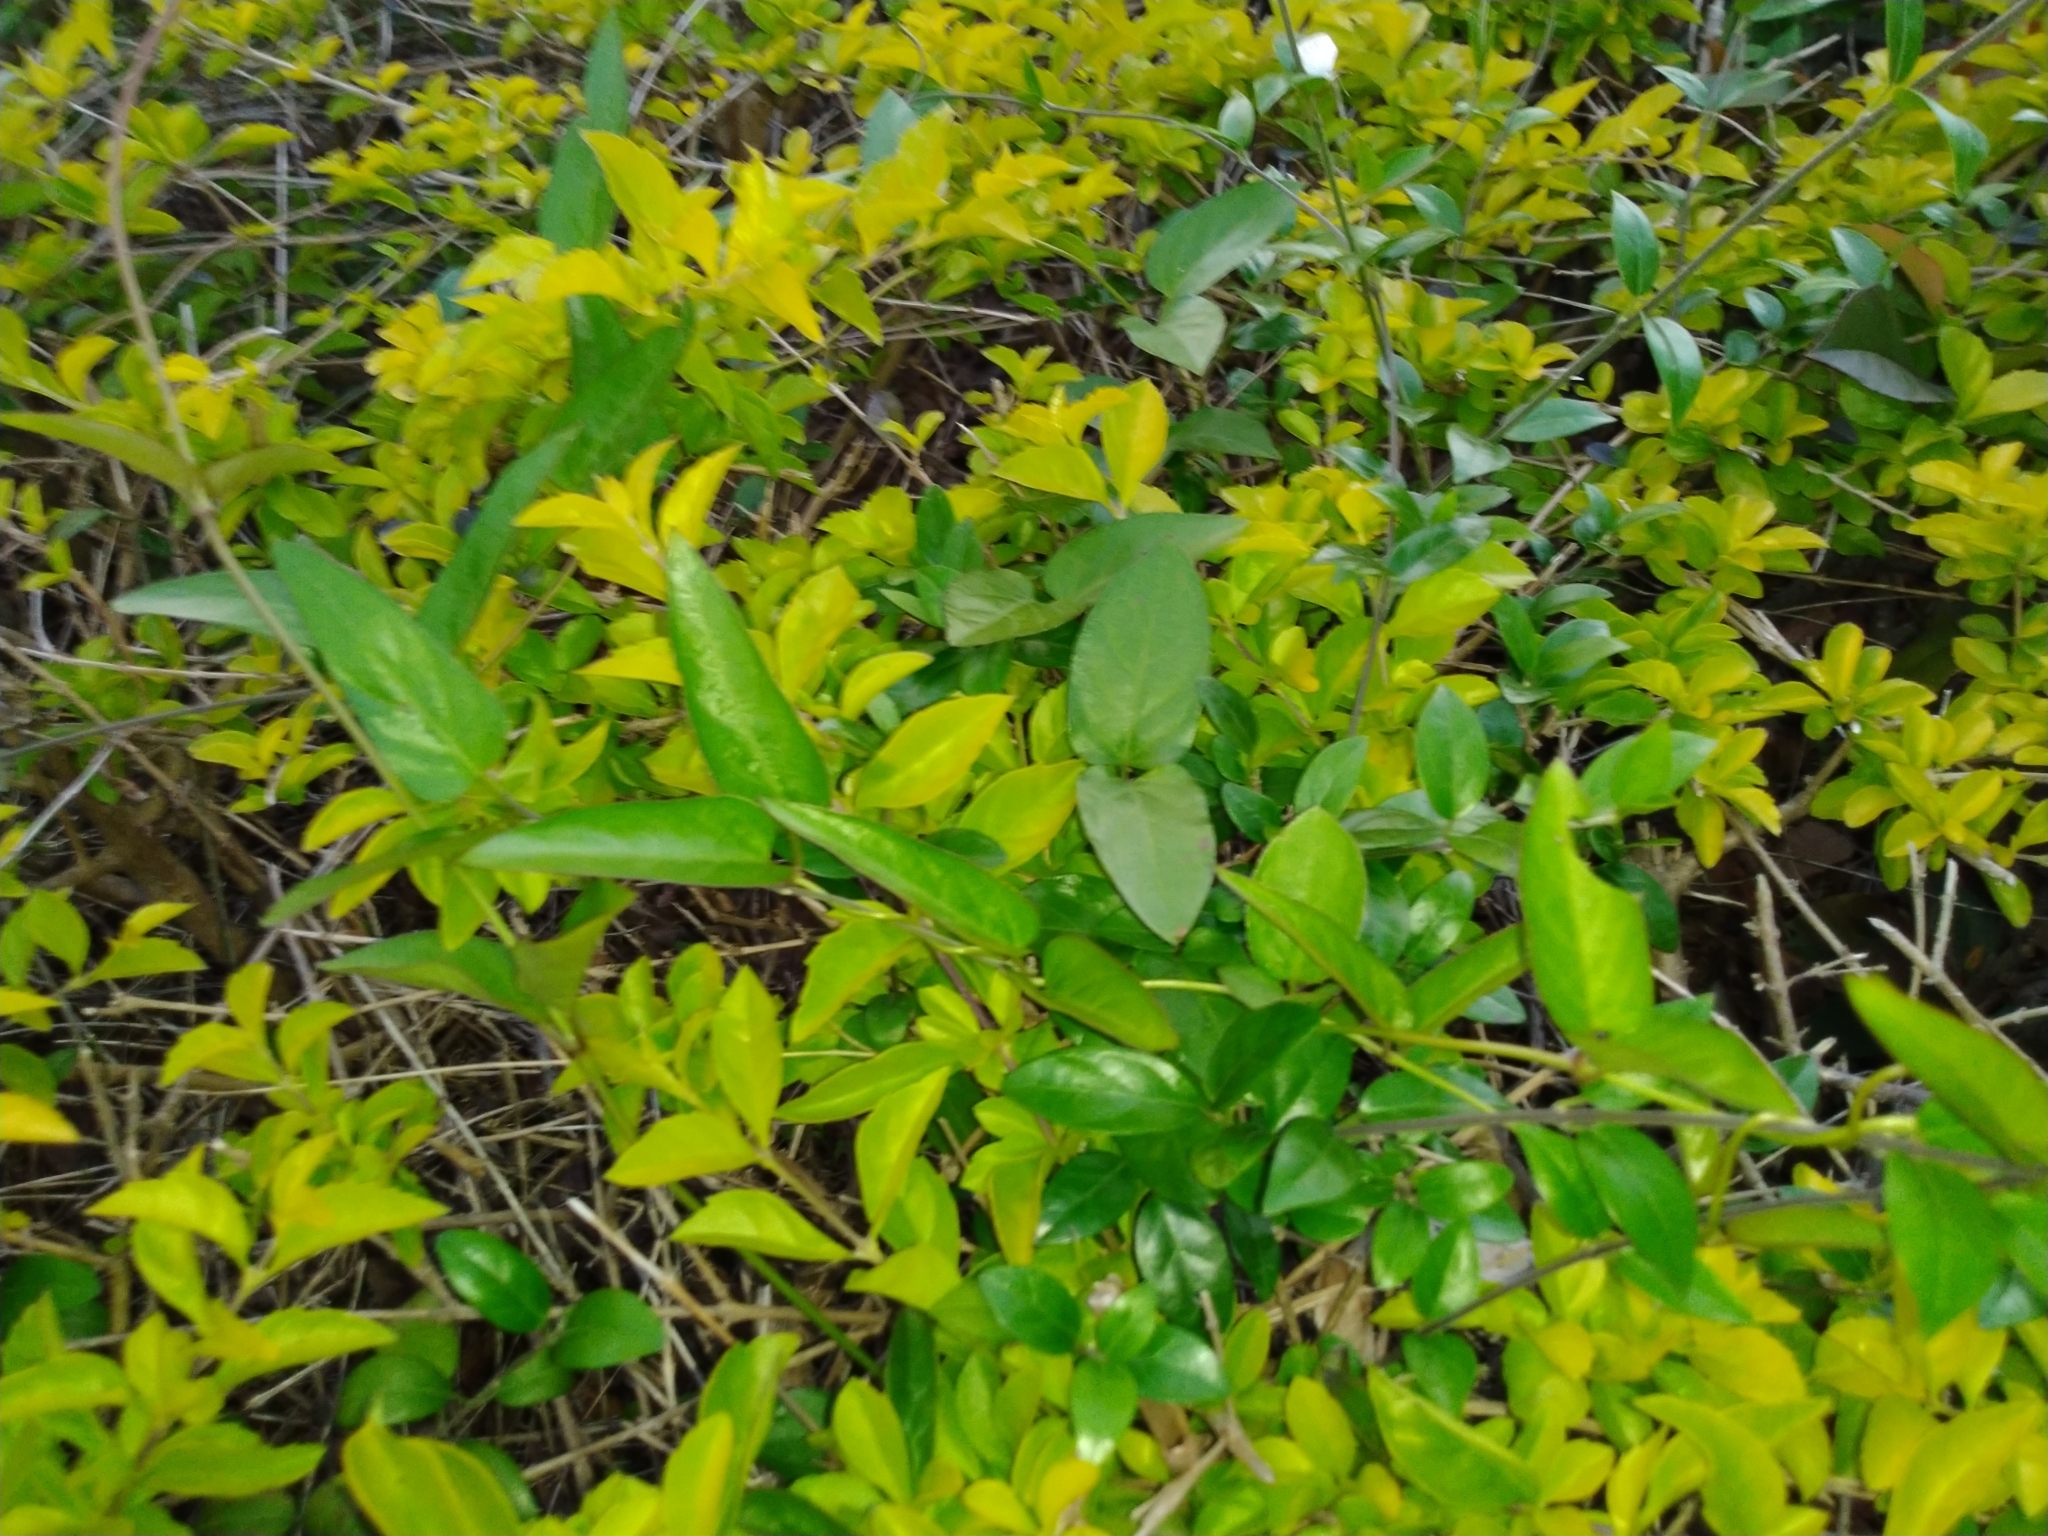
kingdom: Plantae
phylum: Tracheophyta
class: Magnoliopsida
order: Gentianales
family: Rubiaceae
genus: Paederia
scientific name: Paederia foetida
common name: Stinkvine
